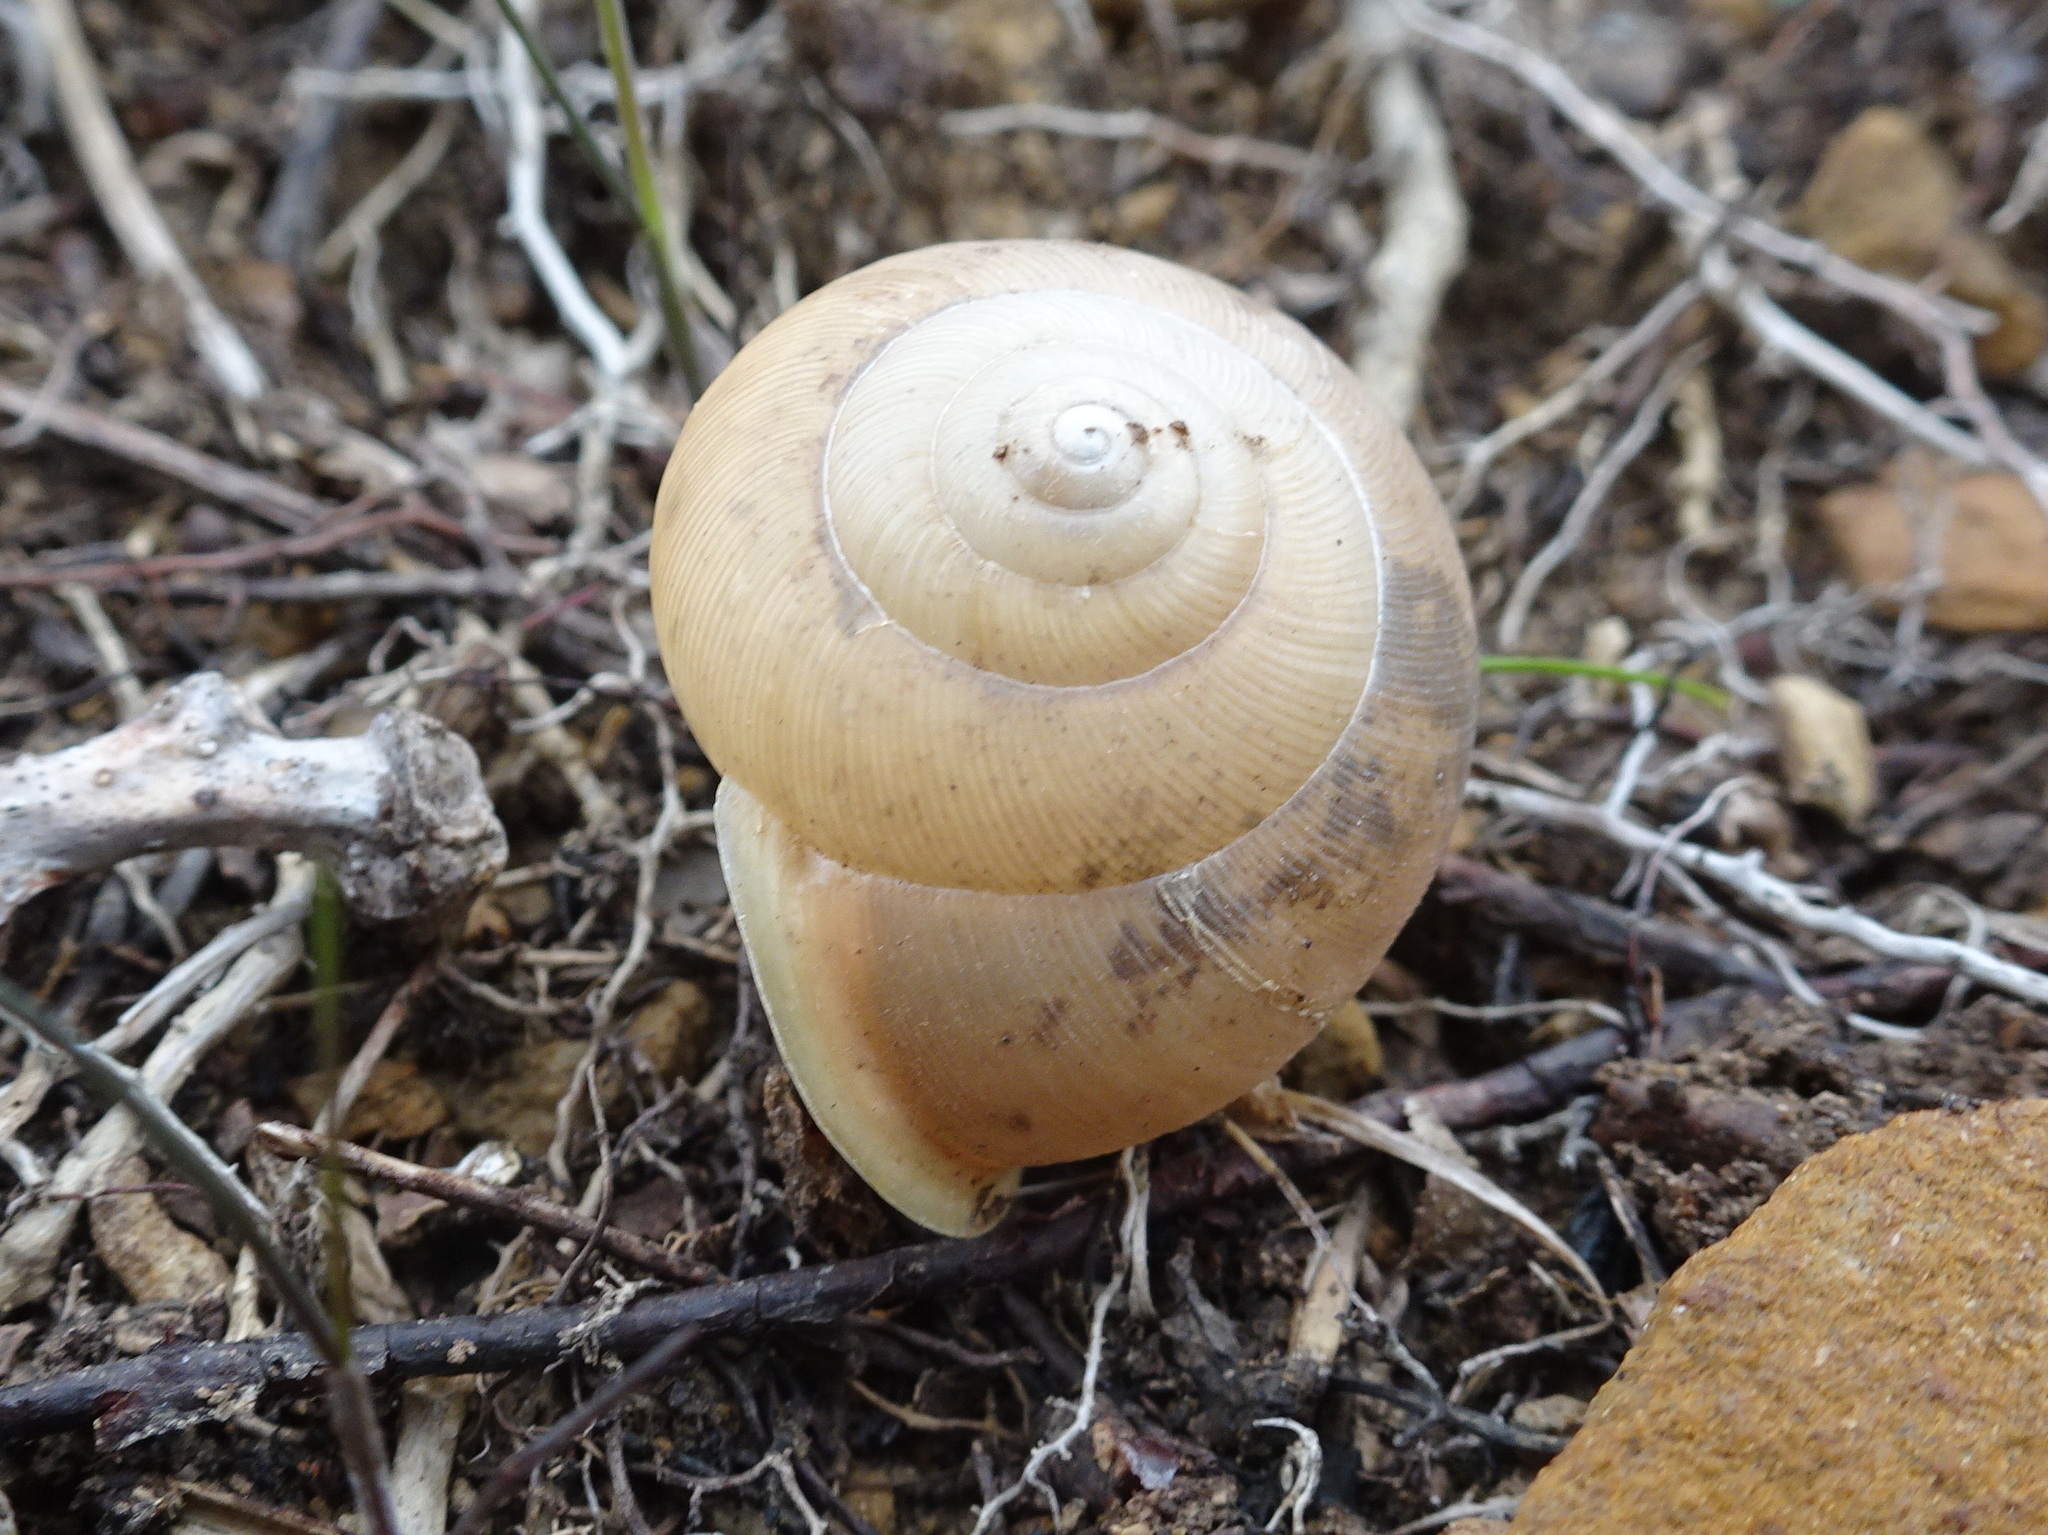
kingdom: Animalia
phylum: Mollusca
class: Gastropoda
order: Stylommatophora
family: Polygyridae
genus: Mesodon
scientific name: Mesodon clausus
